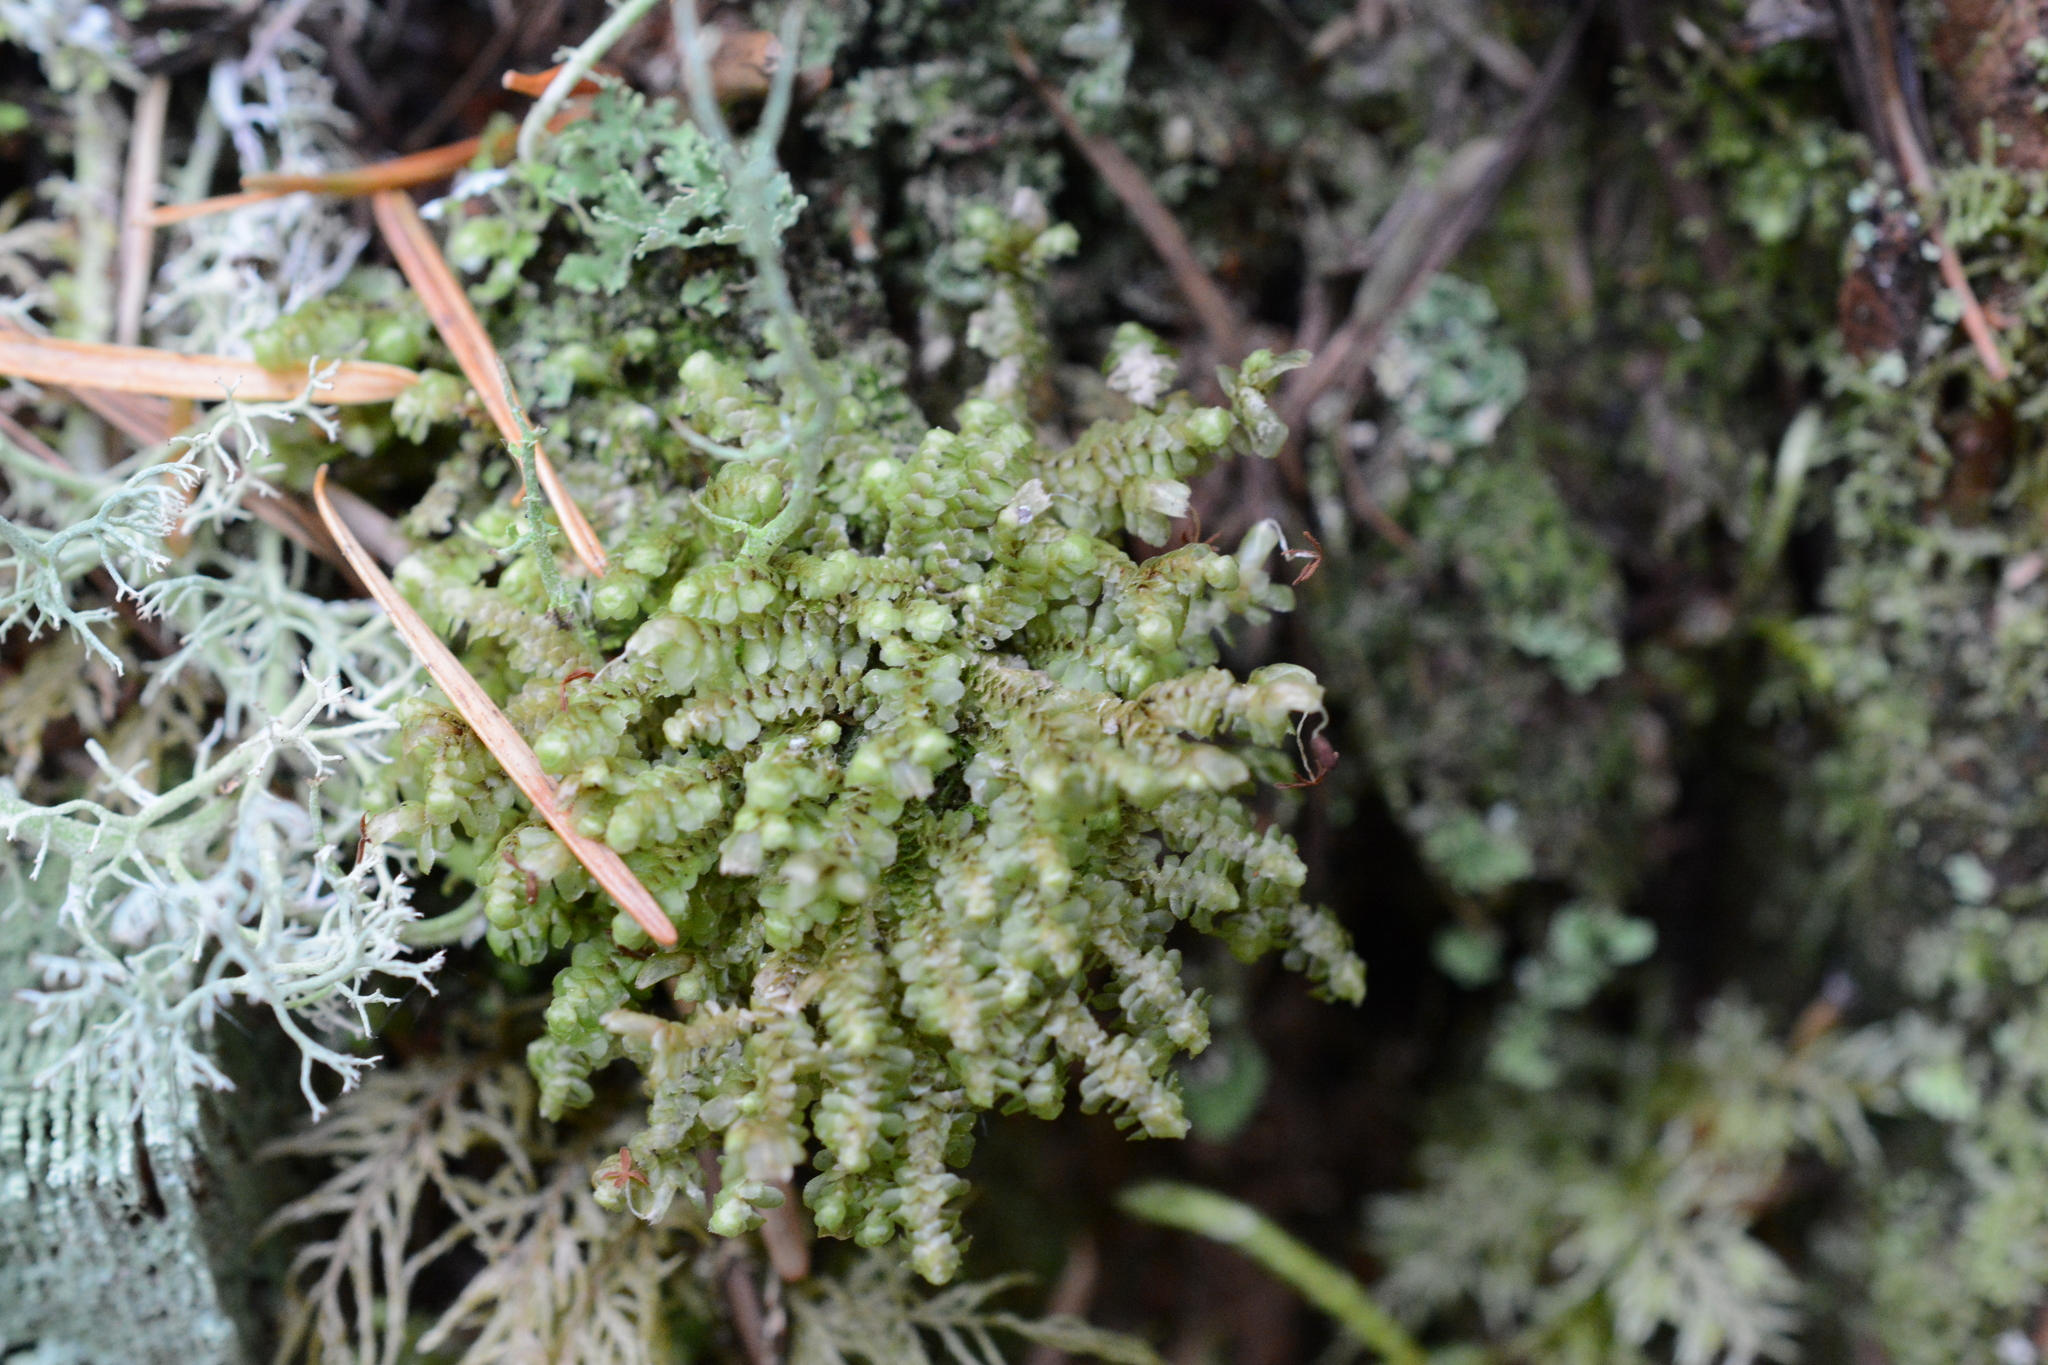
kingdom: Plantae
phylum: Marchantiophyta
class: Jungermanniopsida
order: Jungermanniales
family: Scapaniaceae
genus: Scapania
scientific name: Scapania bolanderi
